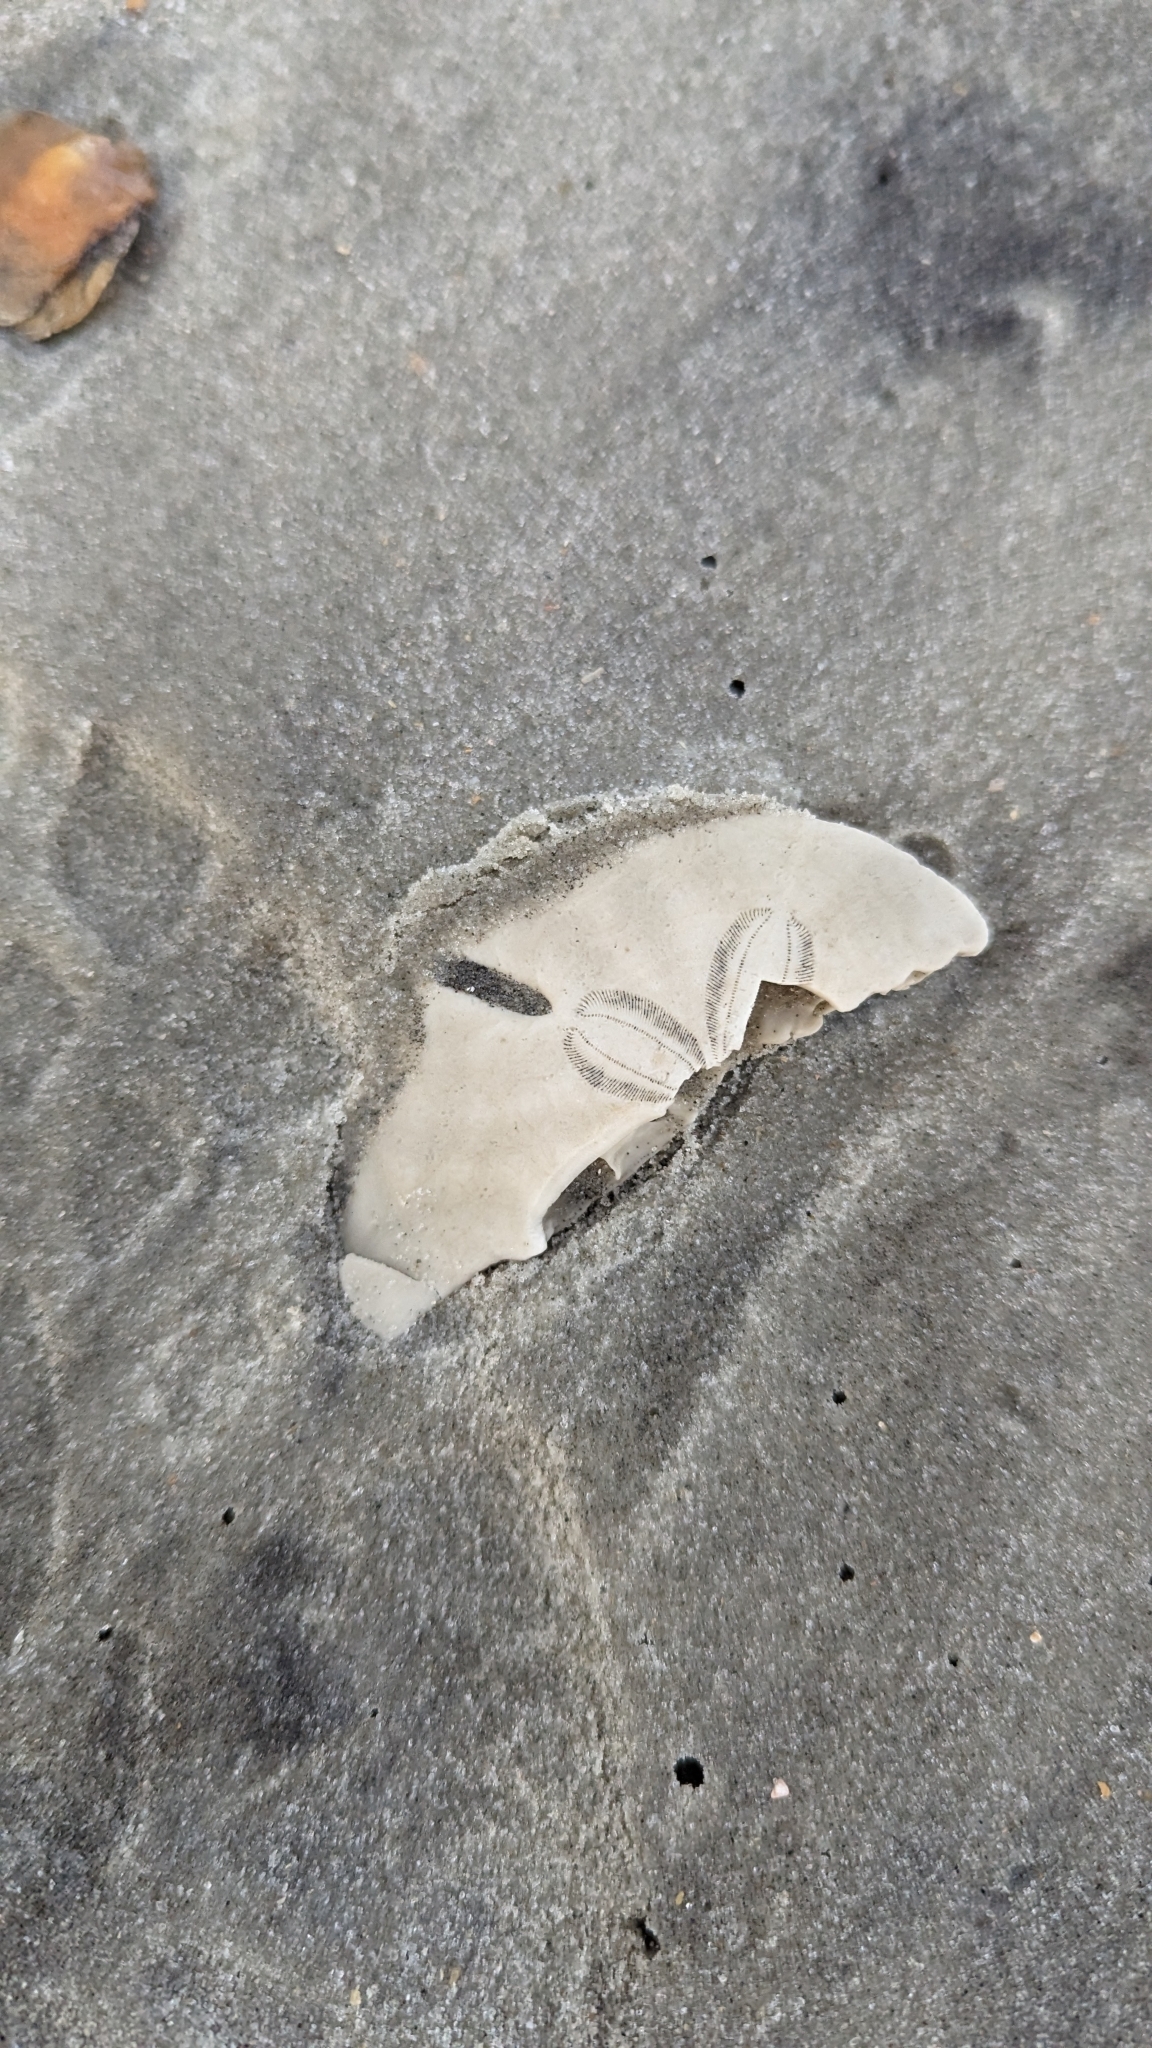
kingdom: Animalia
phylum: Echinodermata
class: Echinoidea
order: Echinolampadacea
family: Mellitidae
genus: Mellita
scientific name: Mellita isometra
